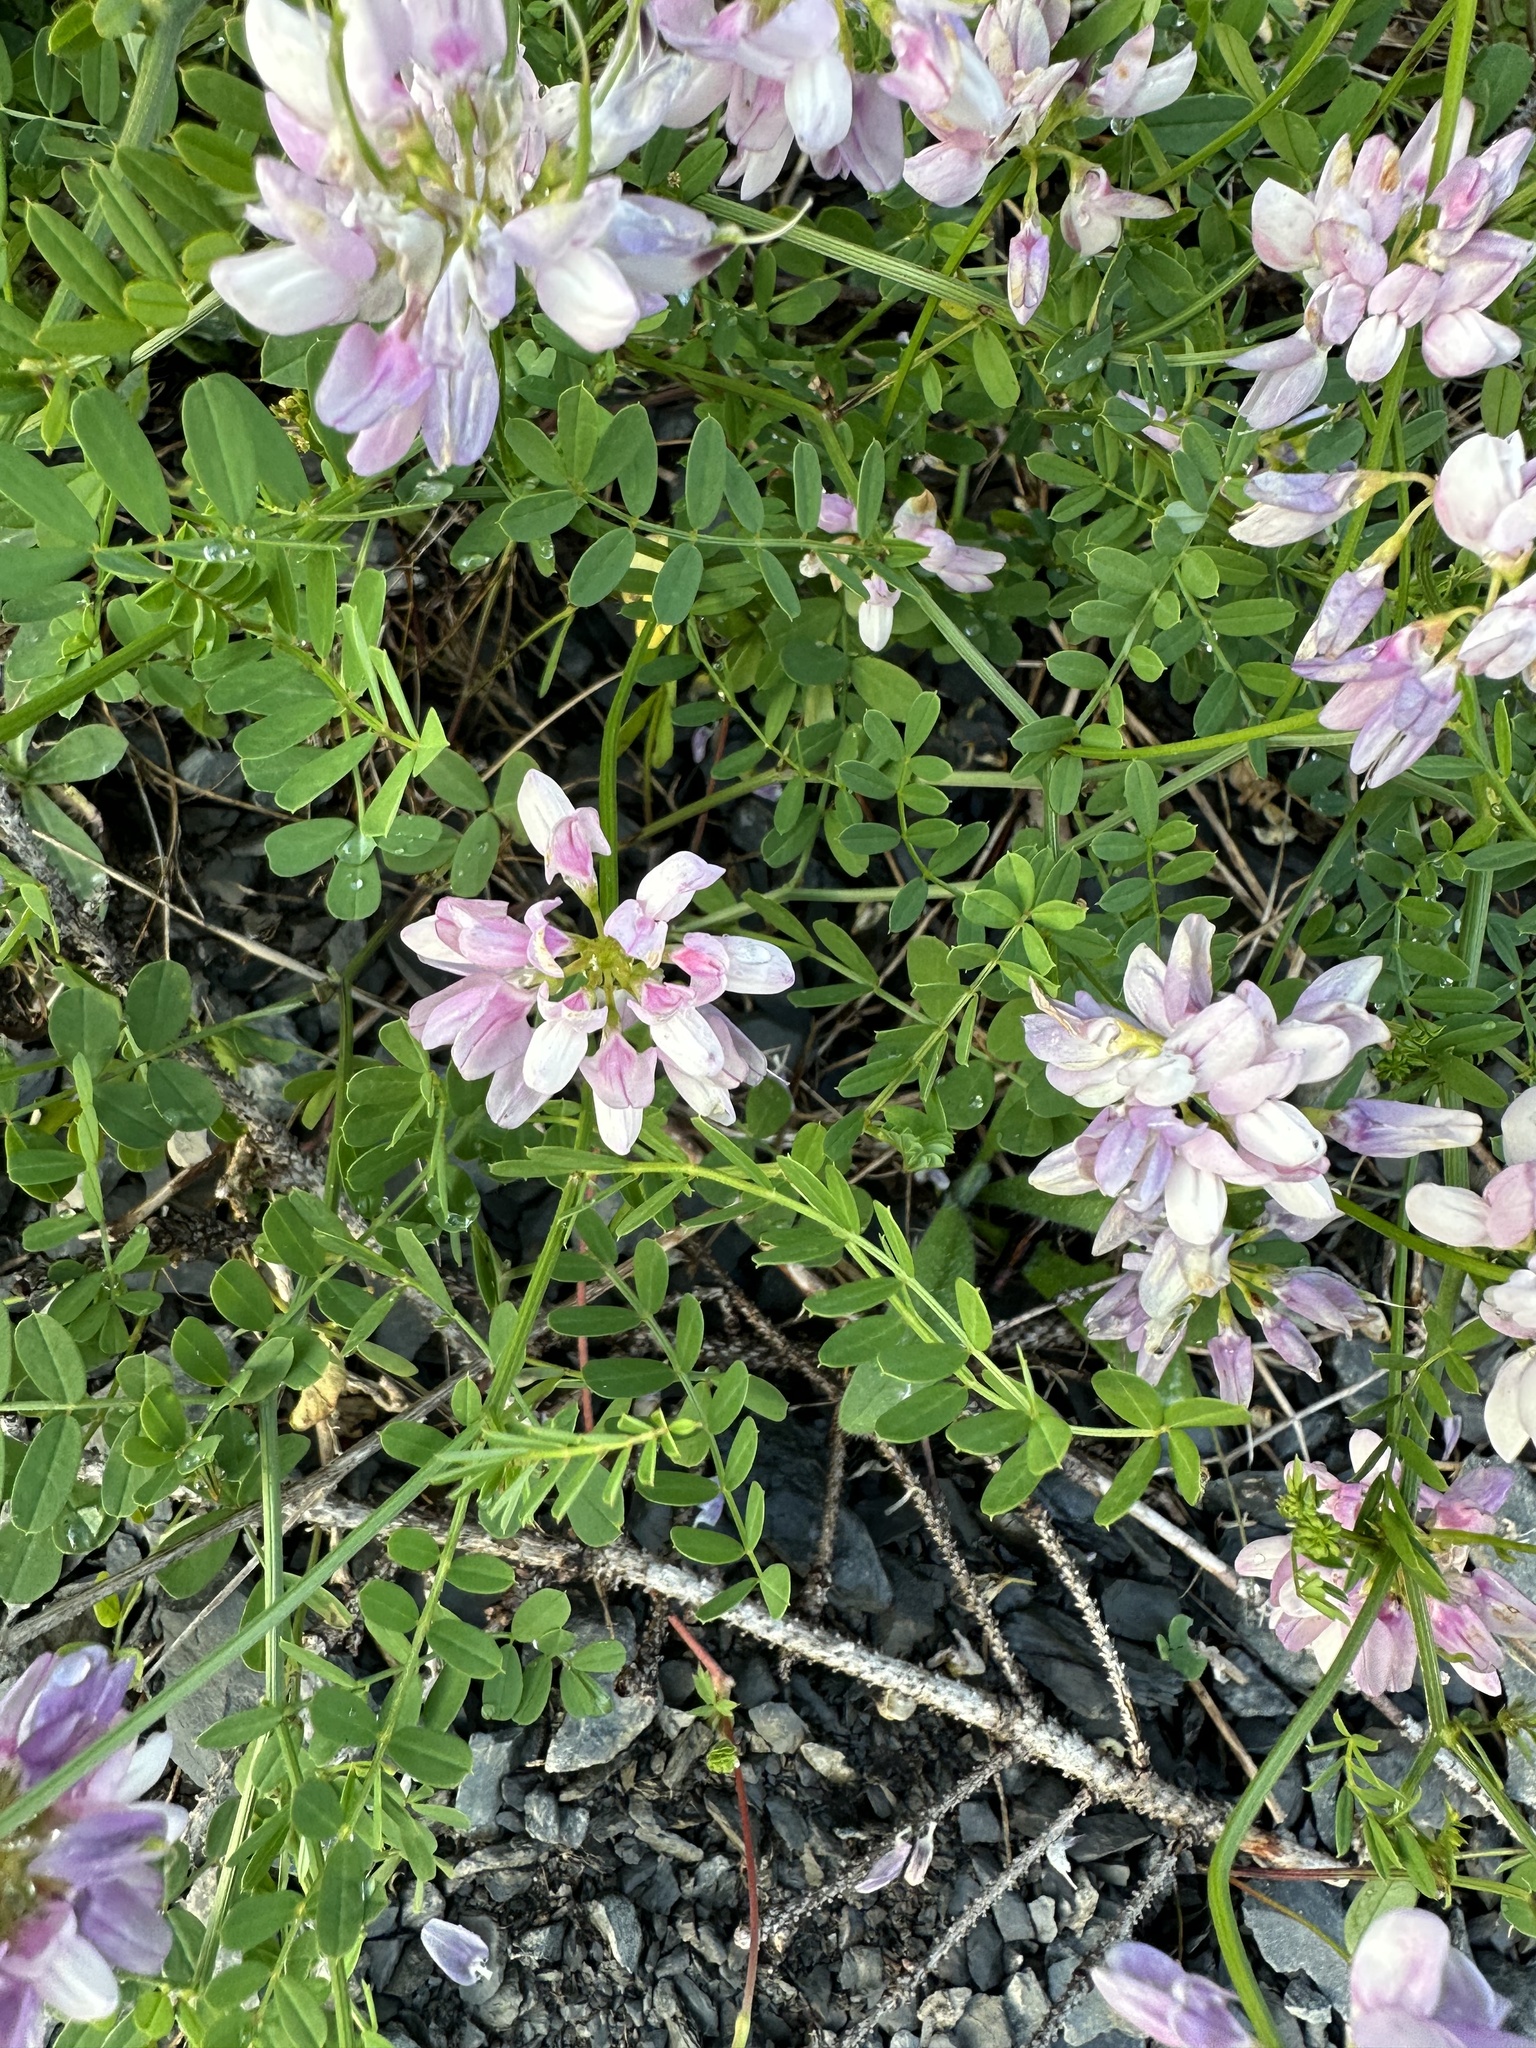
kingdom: Plantae
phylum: Tracheophyta
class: Magnoliopsida
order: Fabales
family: Fabaceae
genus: Coronilla
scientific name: Coronilla varia
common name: Crownvetch
